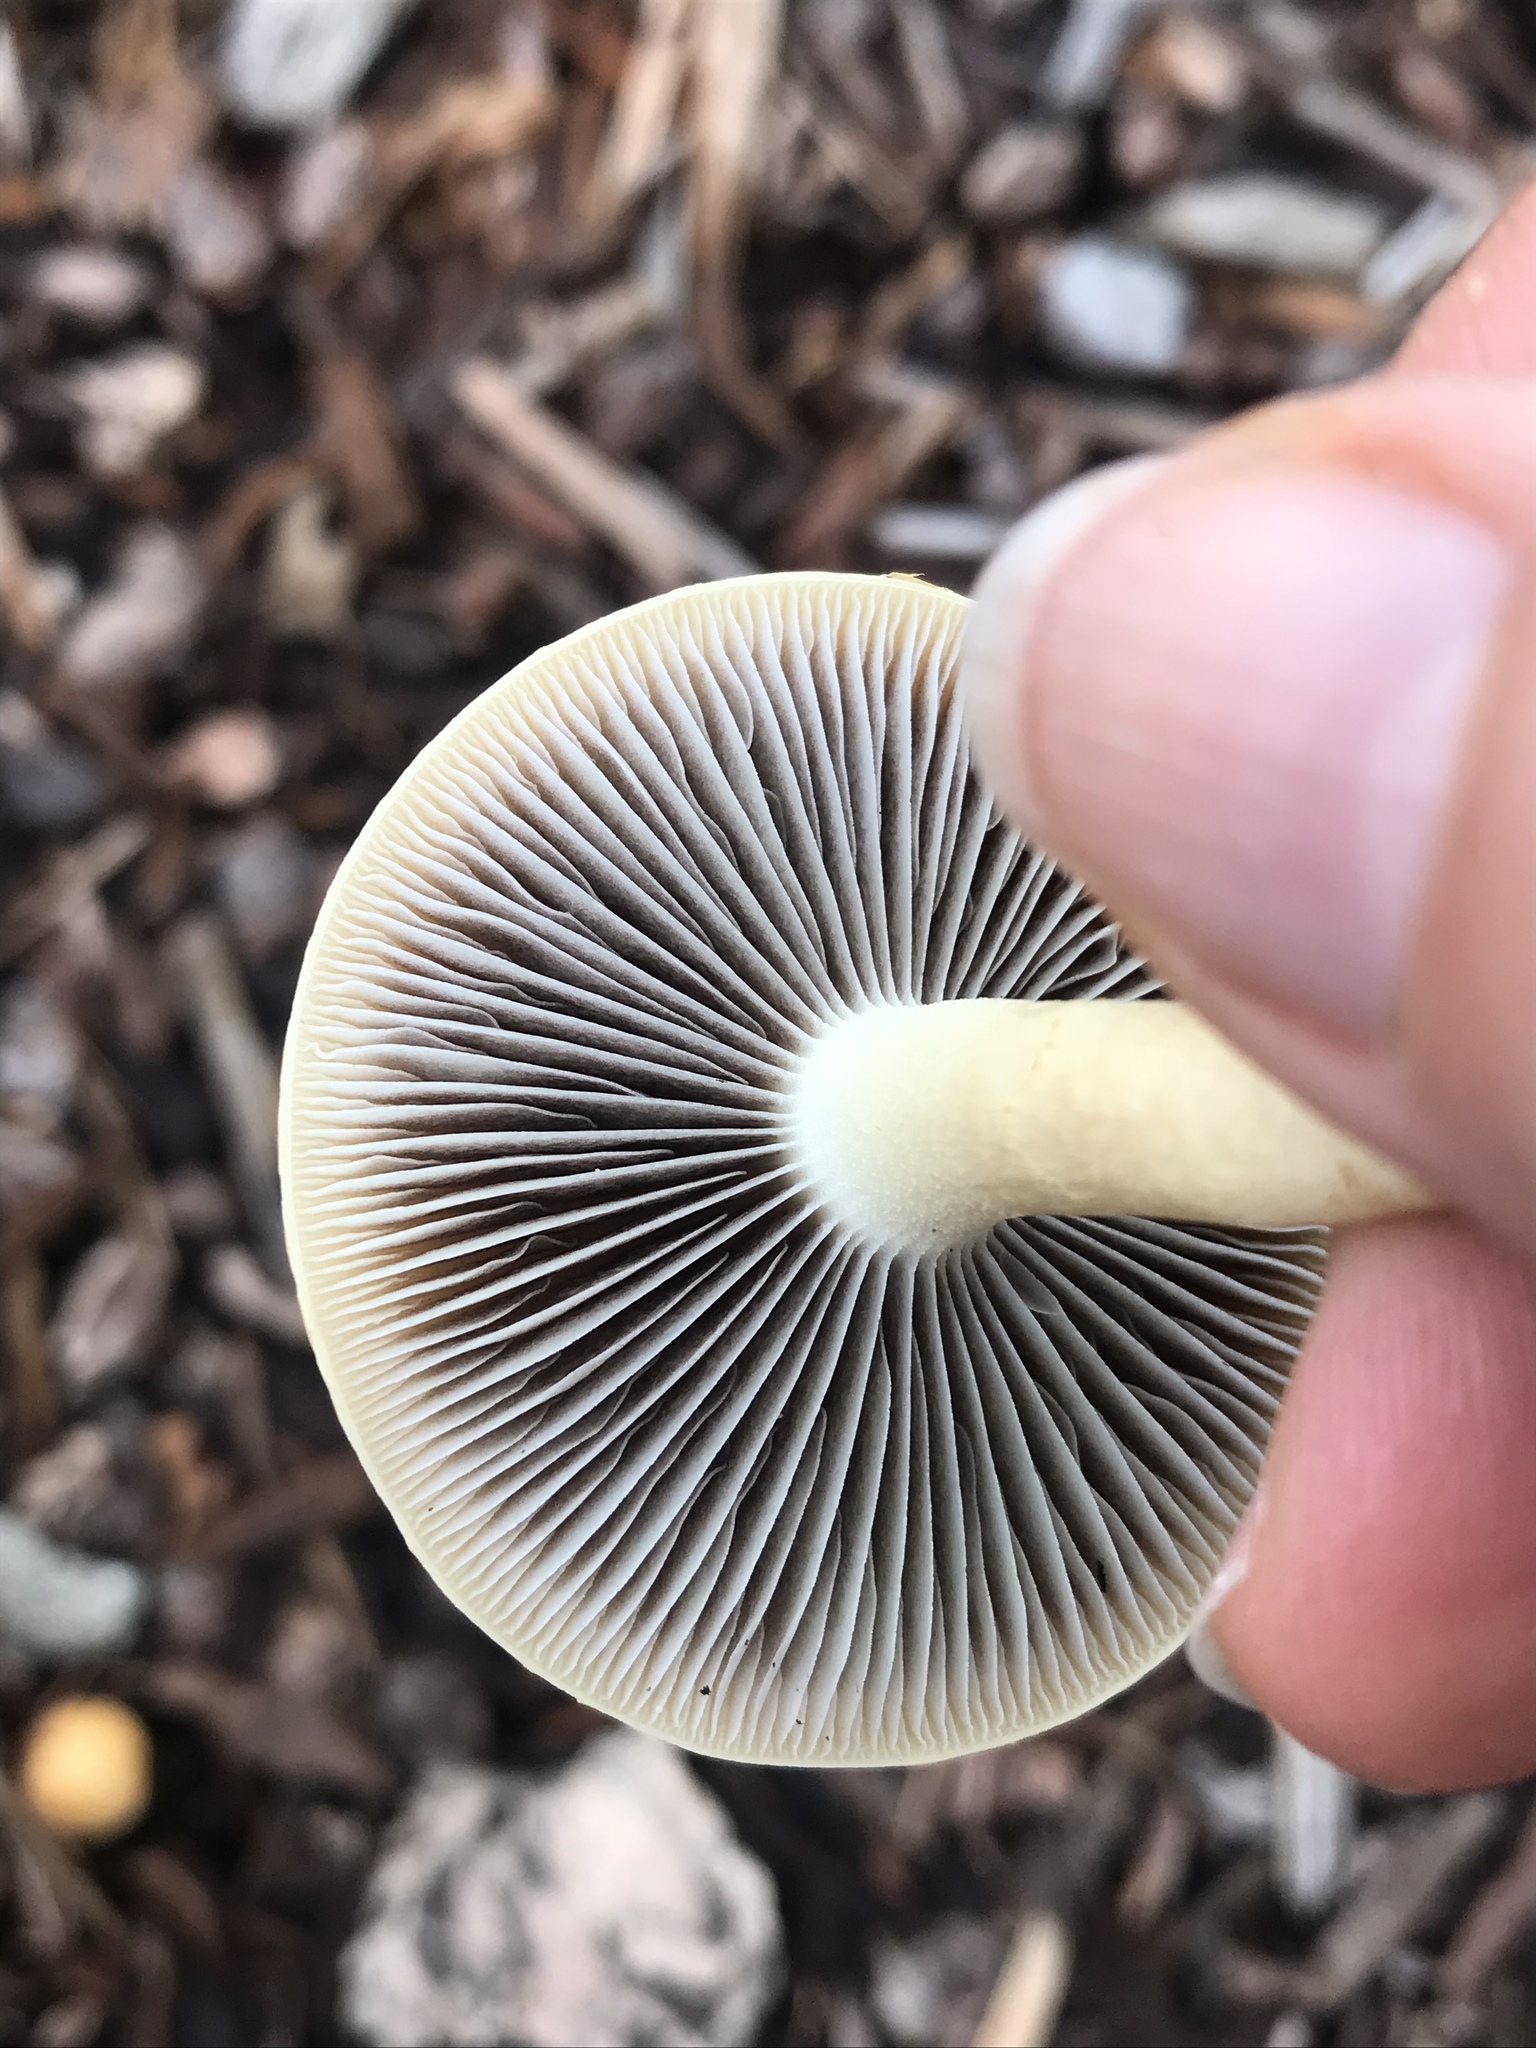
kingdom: Fungi
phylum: Basidiomycota
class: Agaricomycetes
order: Agaricales
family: Strophariaceae
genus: Leratiomyces
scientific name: Leratiomyces percevalii
